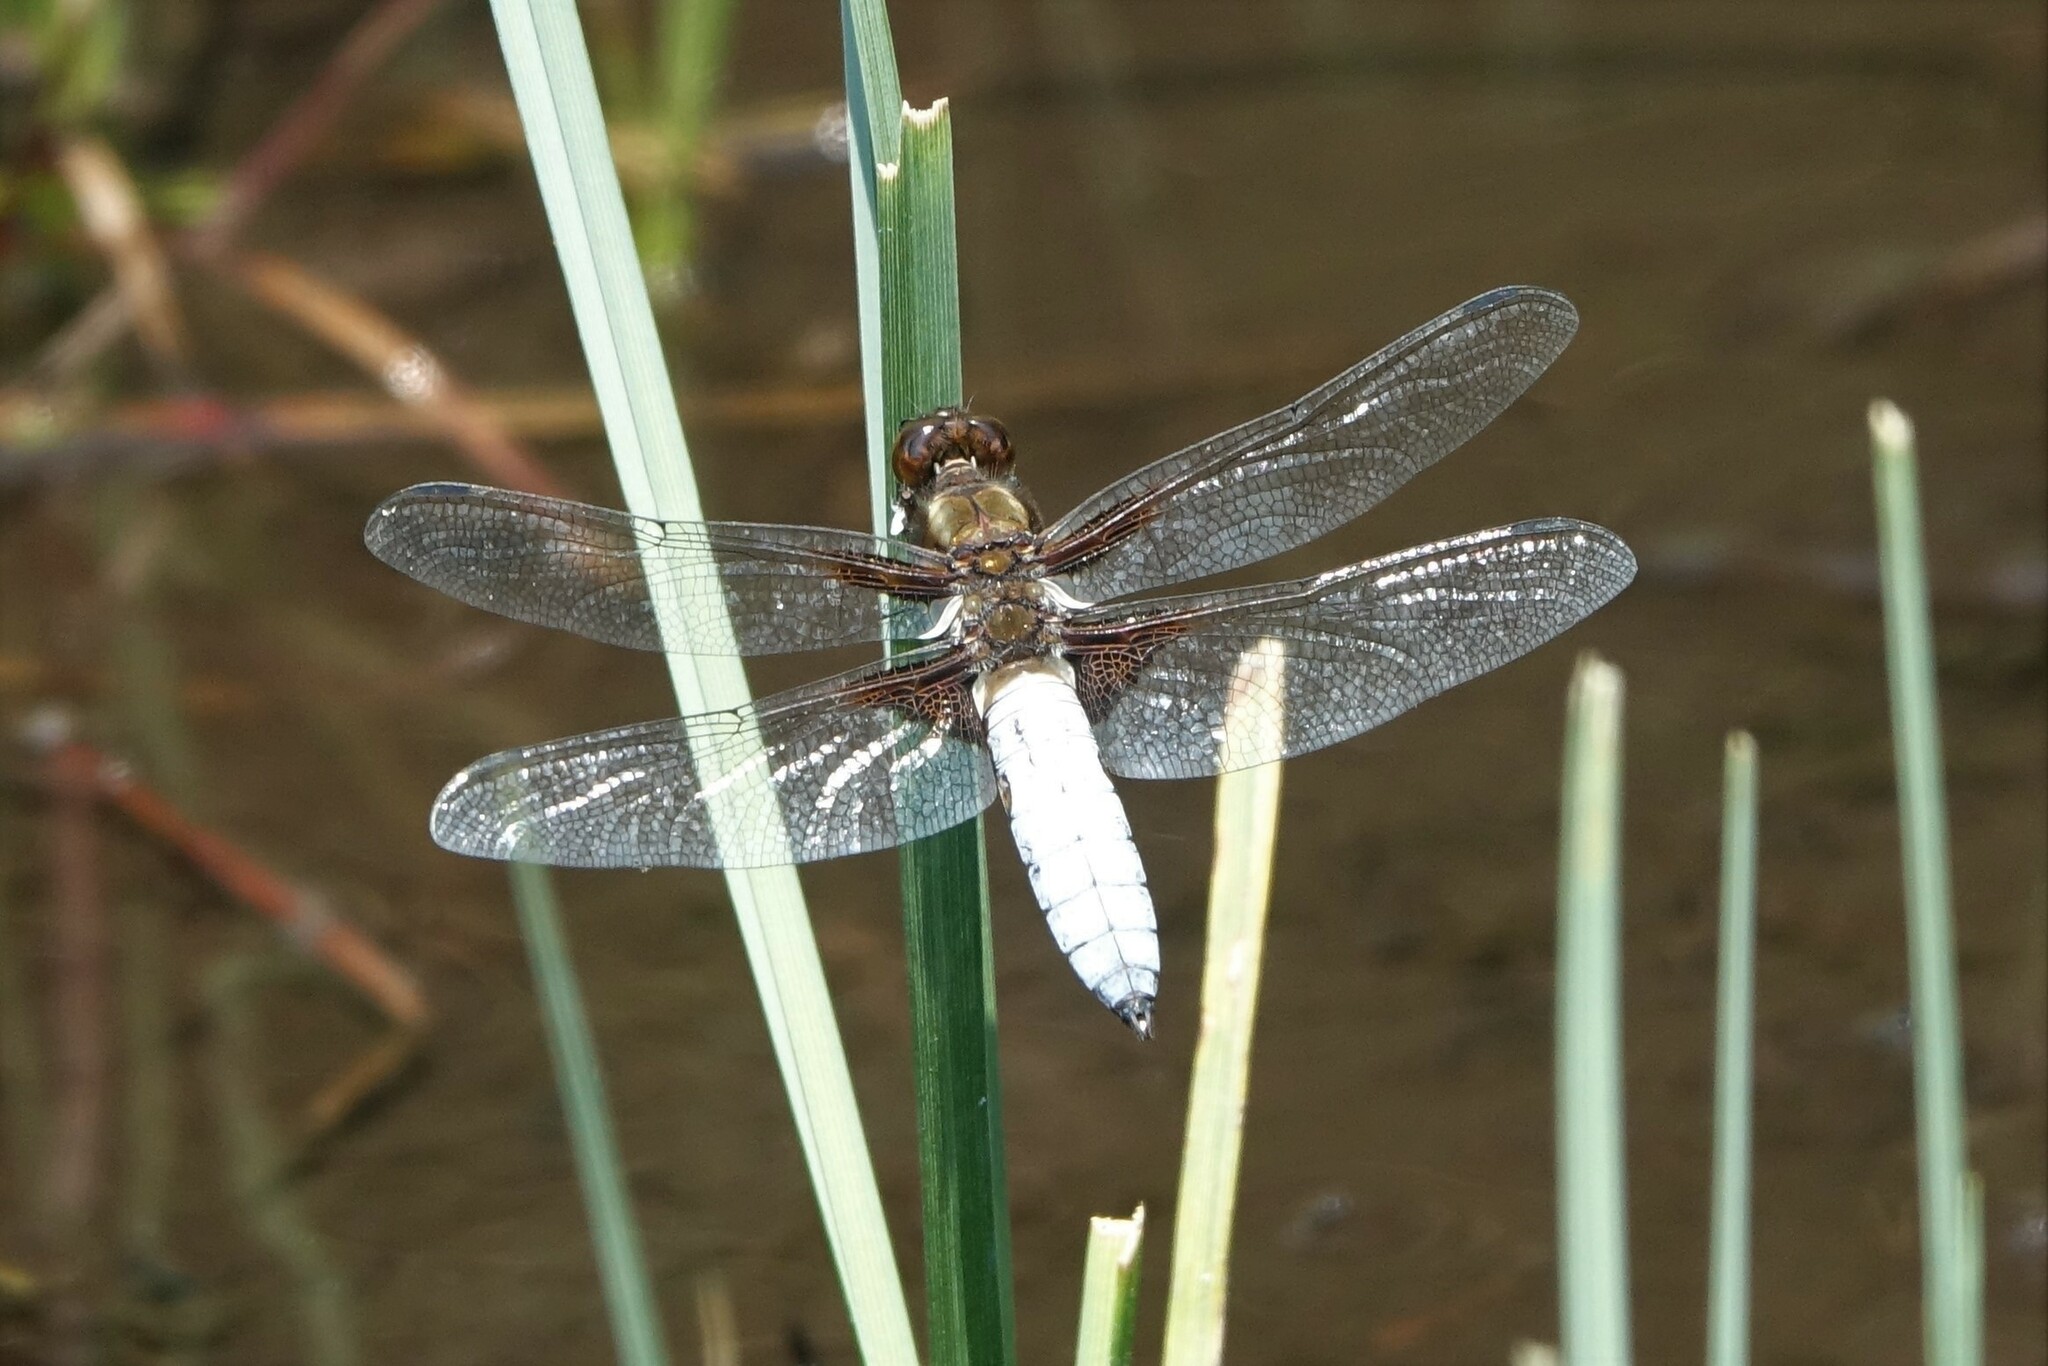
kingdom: Animalia
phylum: Arthropoda
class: Insecta
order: Odonata
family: Libellulidae
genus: Libellula
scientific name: Libellula depressa
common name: Broad-bodied chaser
